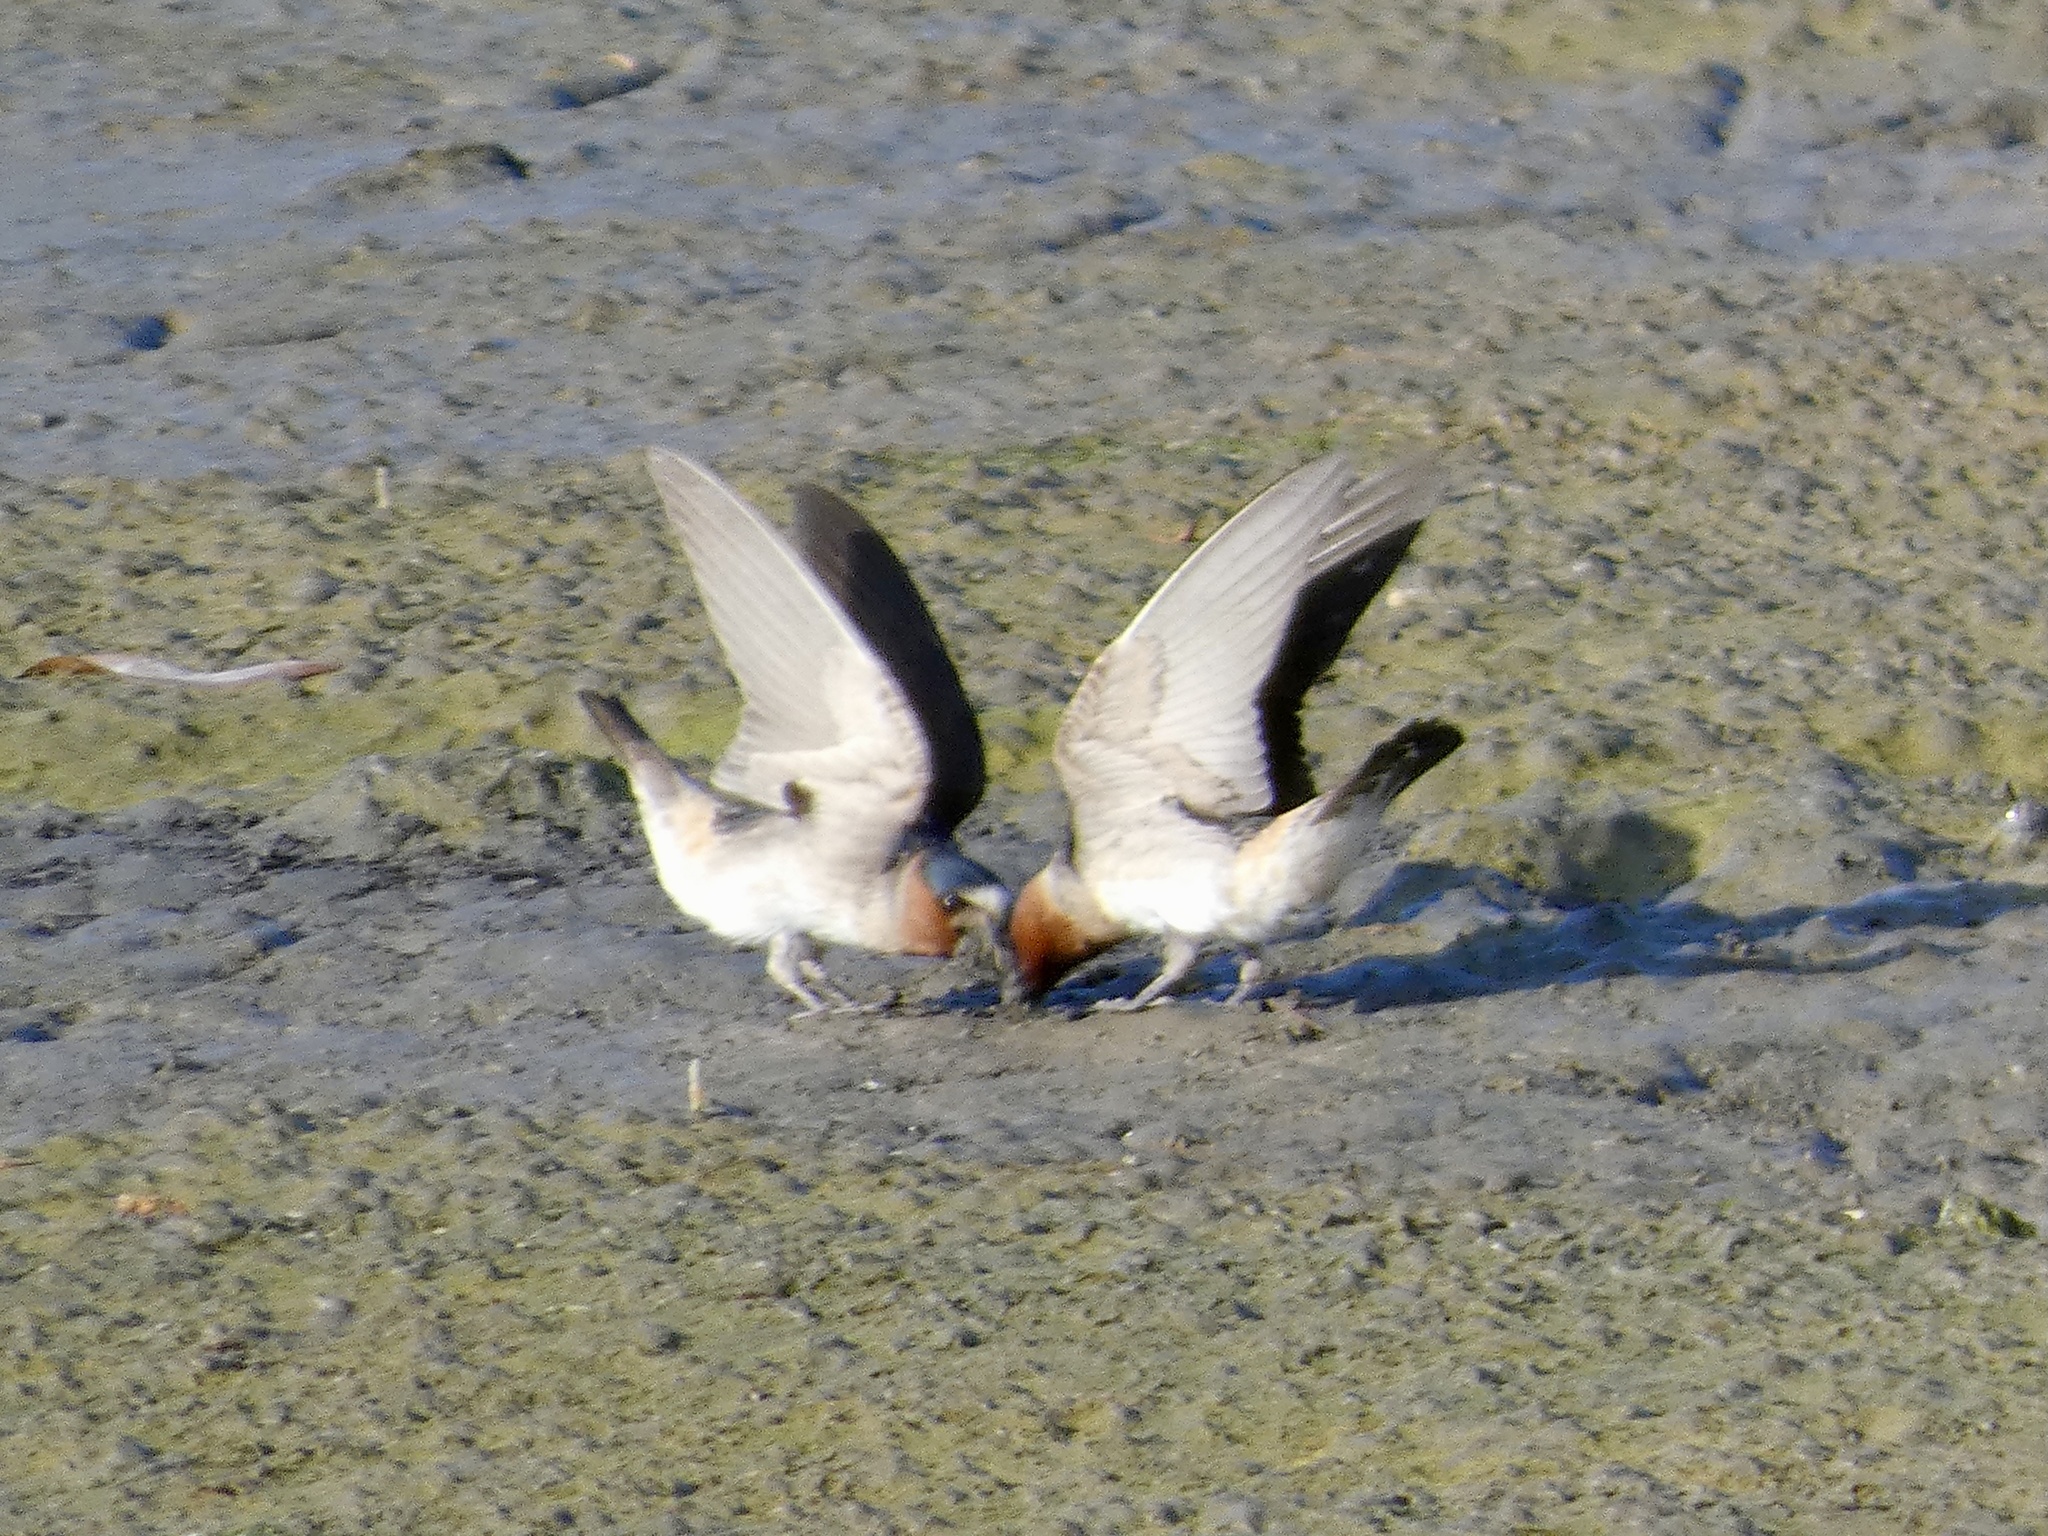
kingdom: Animalia
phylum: Chordata
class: Aves
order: Passeriformes
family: Hirundinidae
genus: Petrochelidon
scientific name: Petrochelidon pyrrhonota
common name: American cliff swallow
